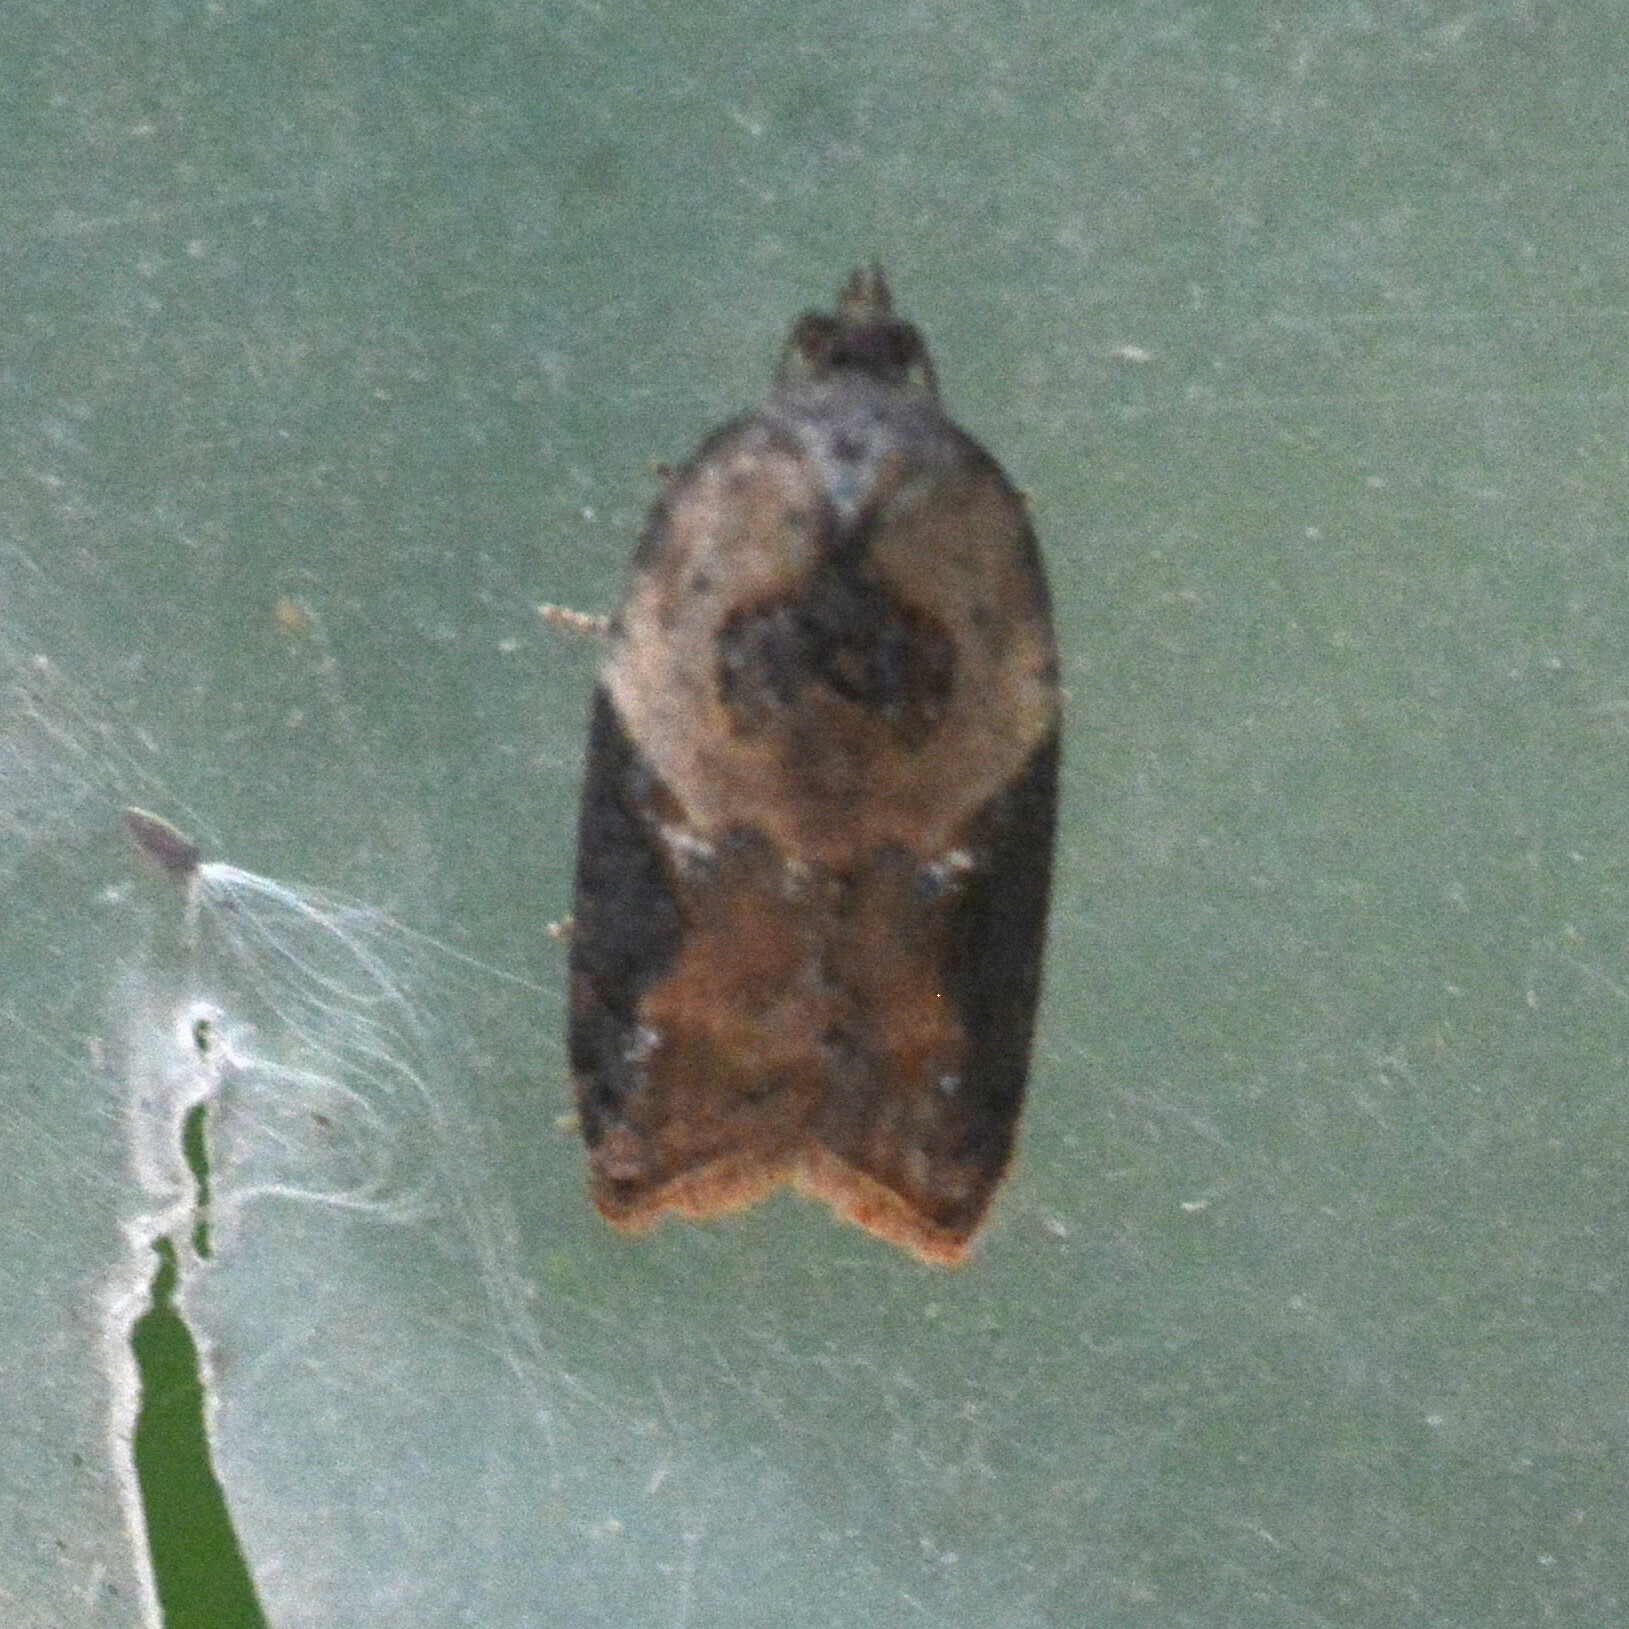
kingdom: Animalia
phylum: Arthropoda
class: Insecta
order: Lepidoptera
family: Tortricidae
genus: Acleris
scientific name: Acleris variegana
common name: Garden rose tortrix
